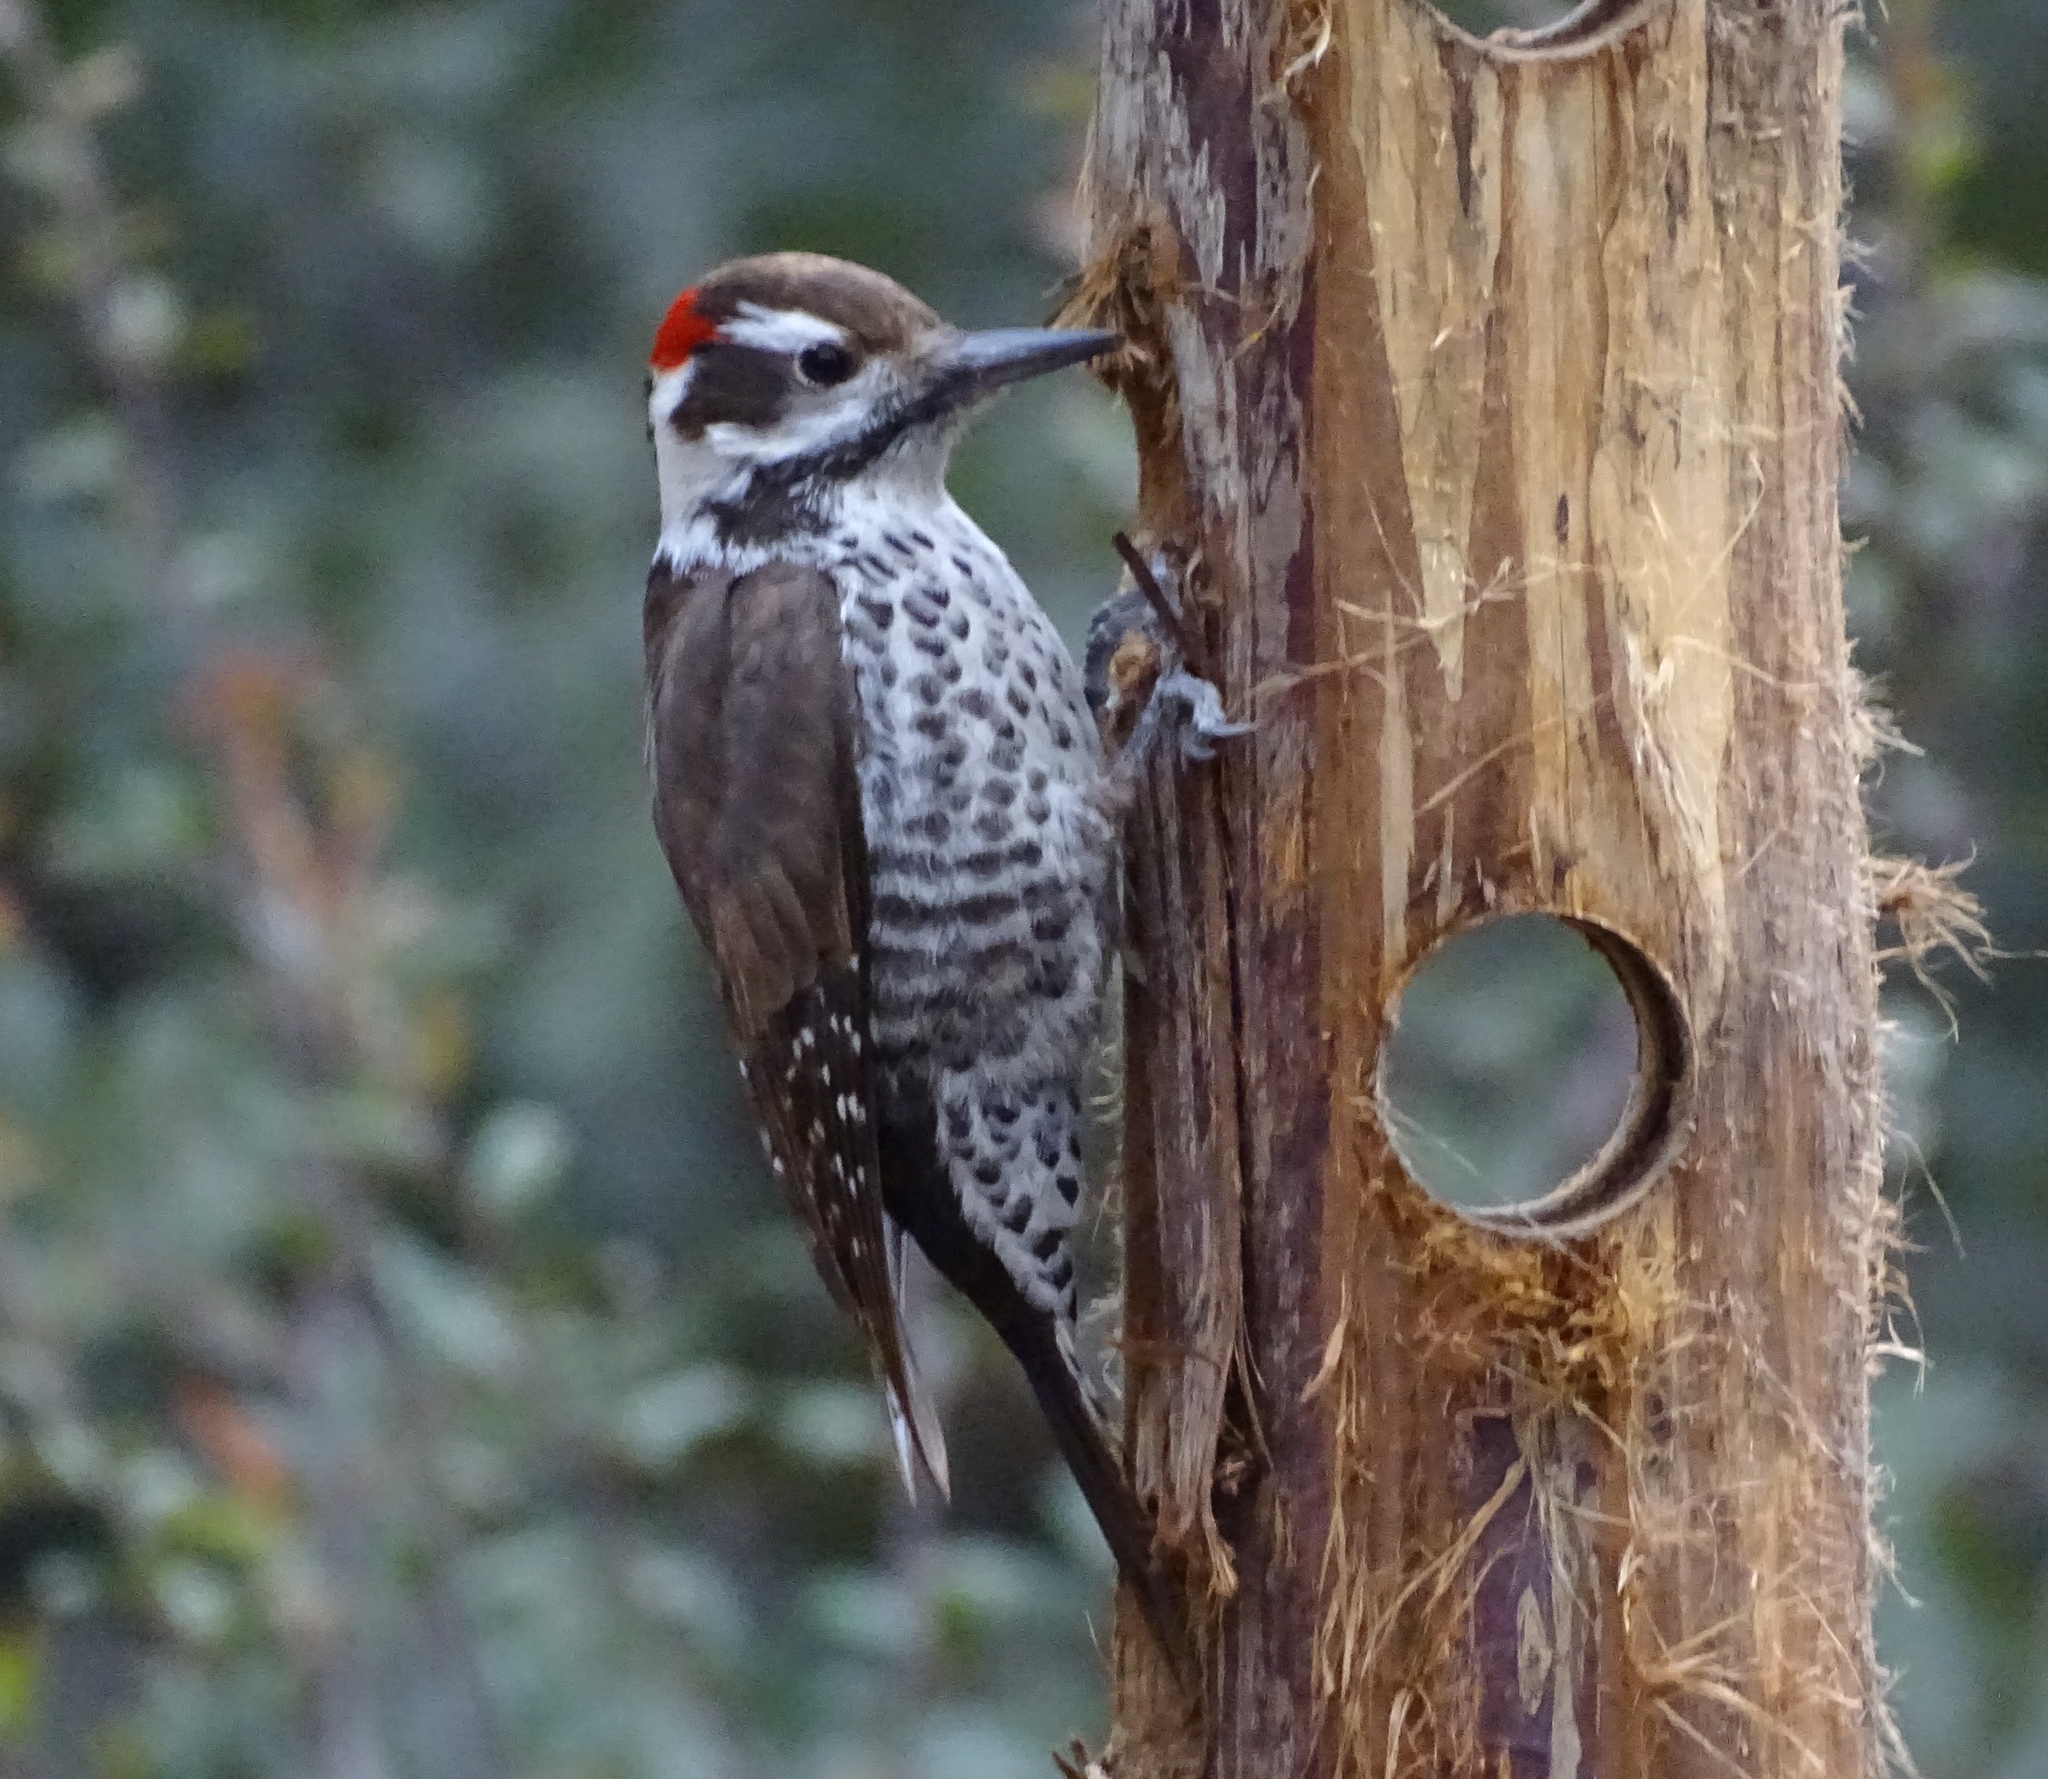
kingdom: Animalia
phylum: Chordata
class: Aves
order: Piciformes
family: Picidae
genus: Leuconotopicus
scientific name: Leuconotopicus arizonae
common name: Arizona woodpecker
